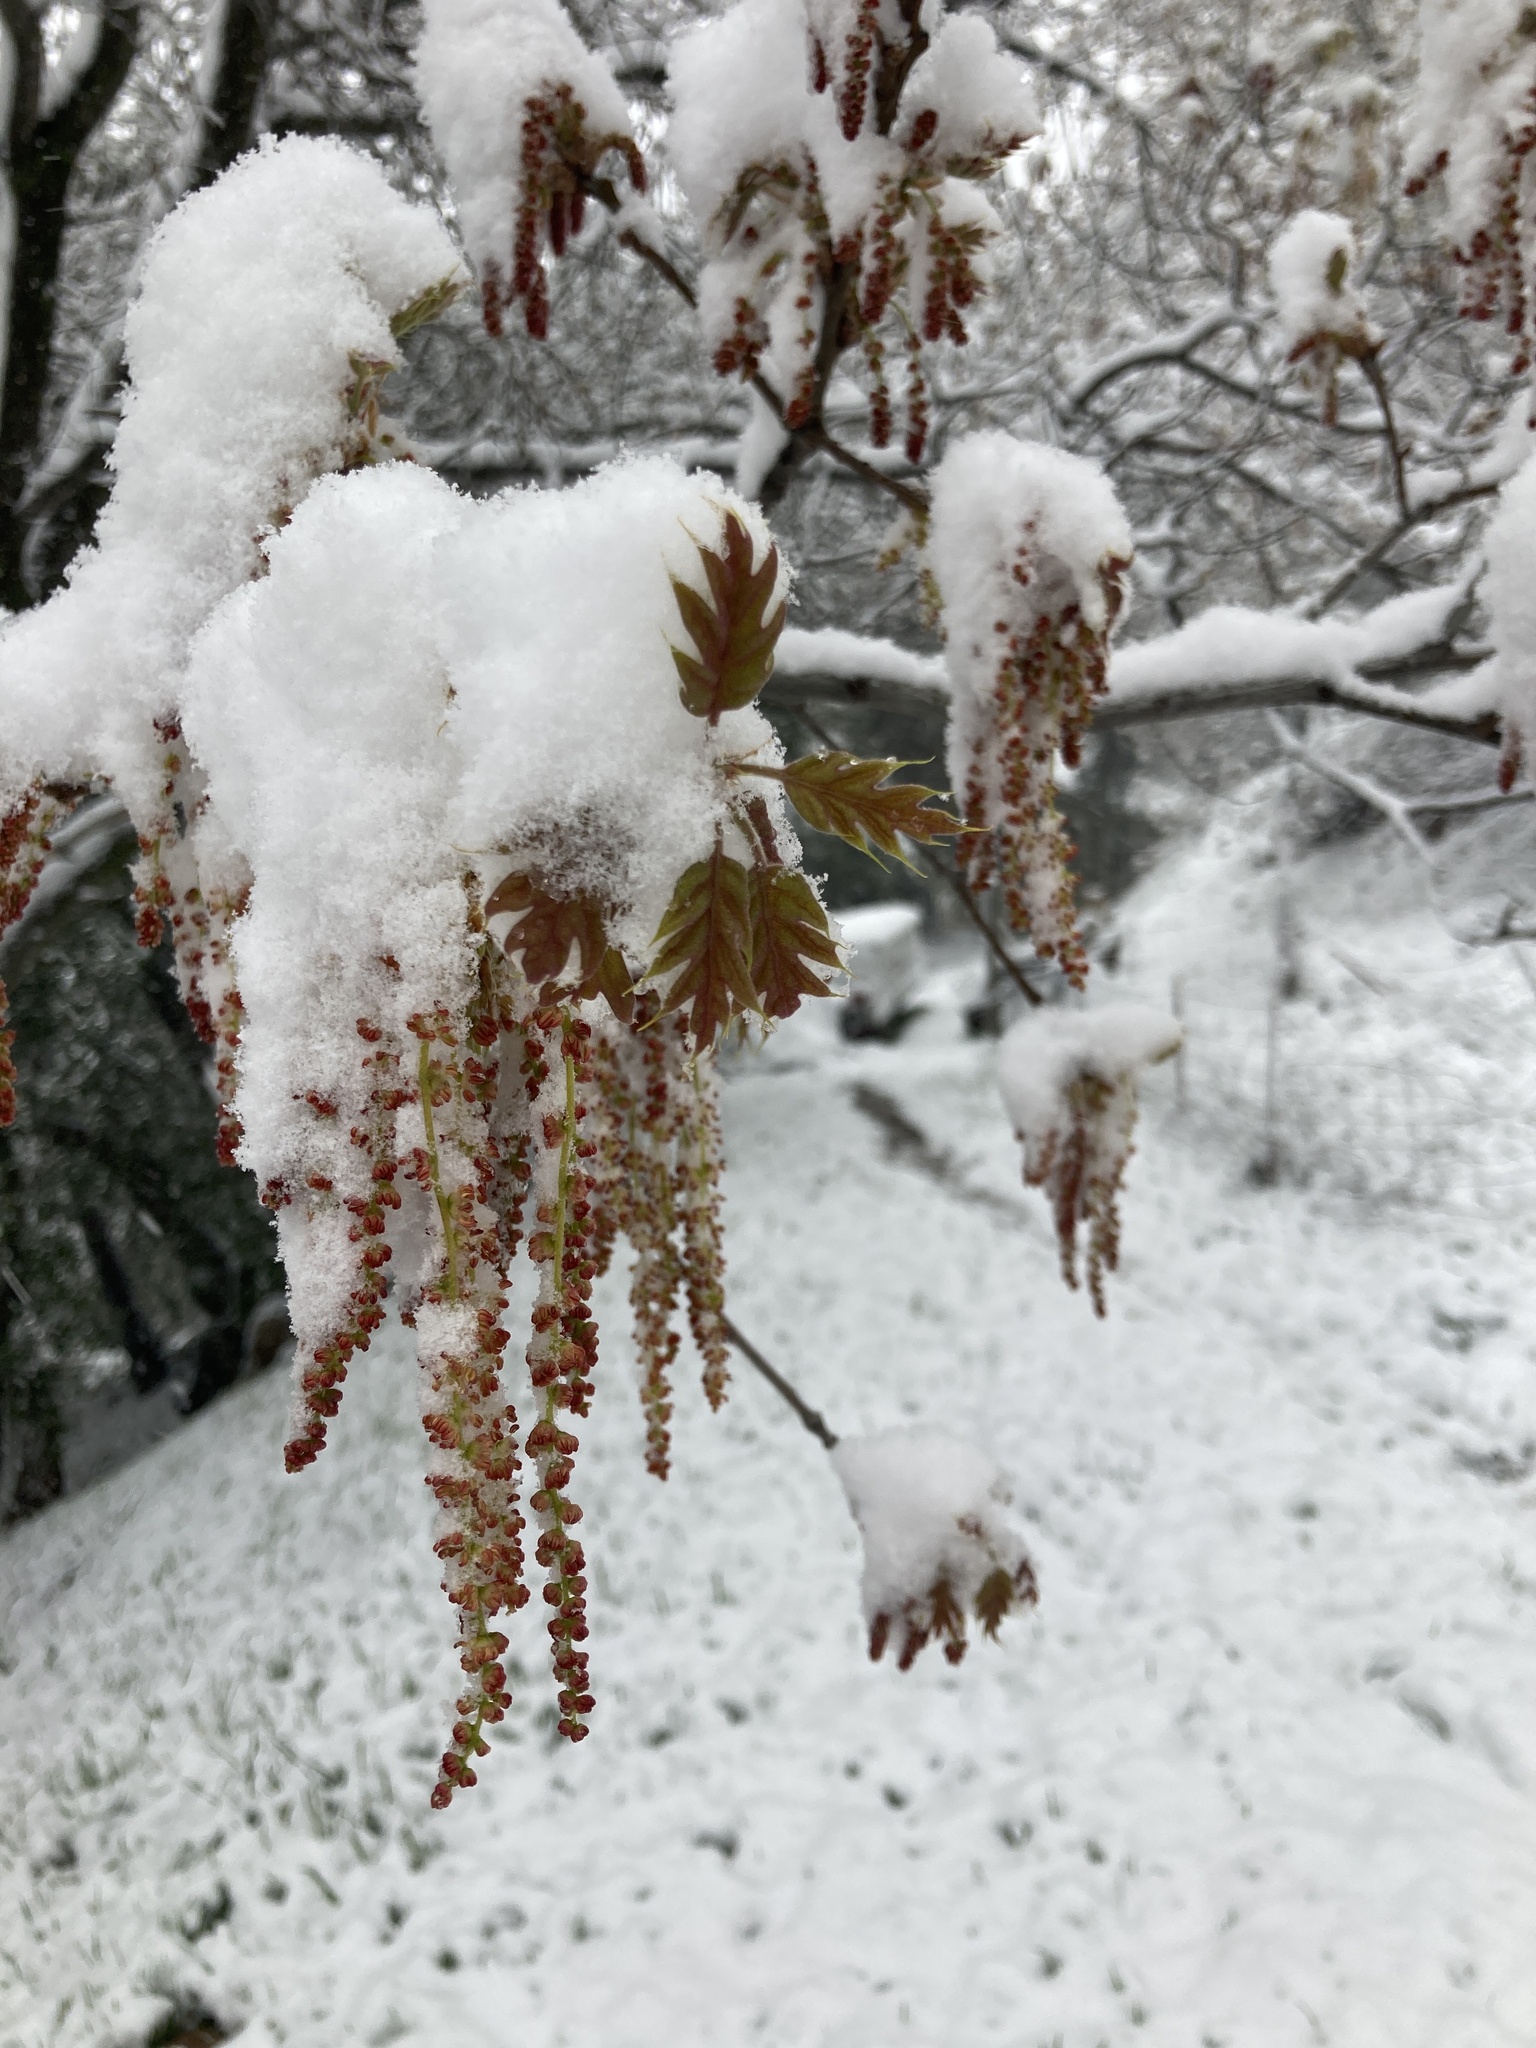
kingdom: Plantae
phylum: Tracheophyta
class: Magnoliopsida
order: Fagales
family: Fagaceae
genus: Quercus
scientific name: Quercus kelloggii
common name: California black oak
